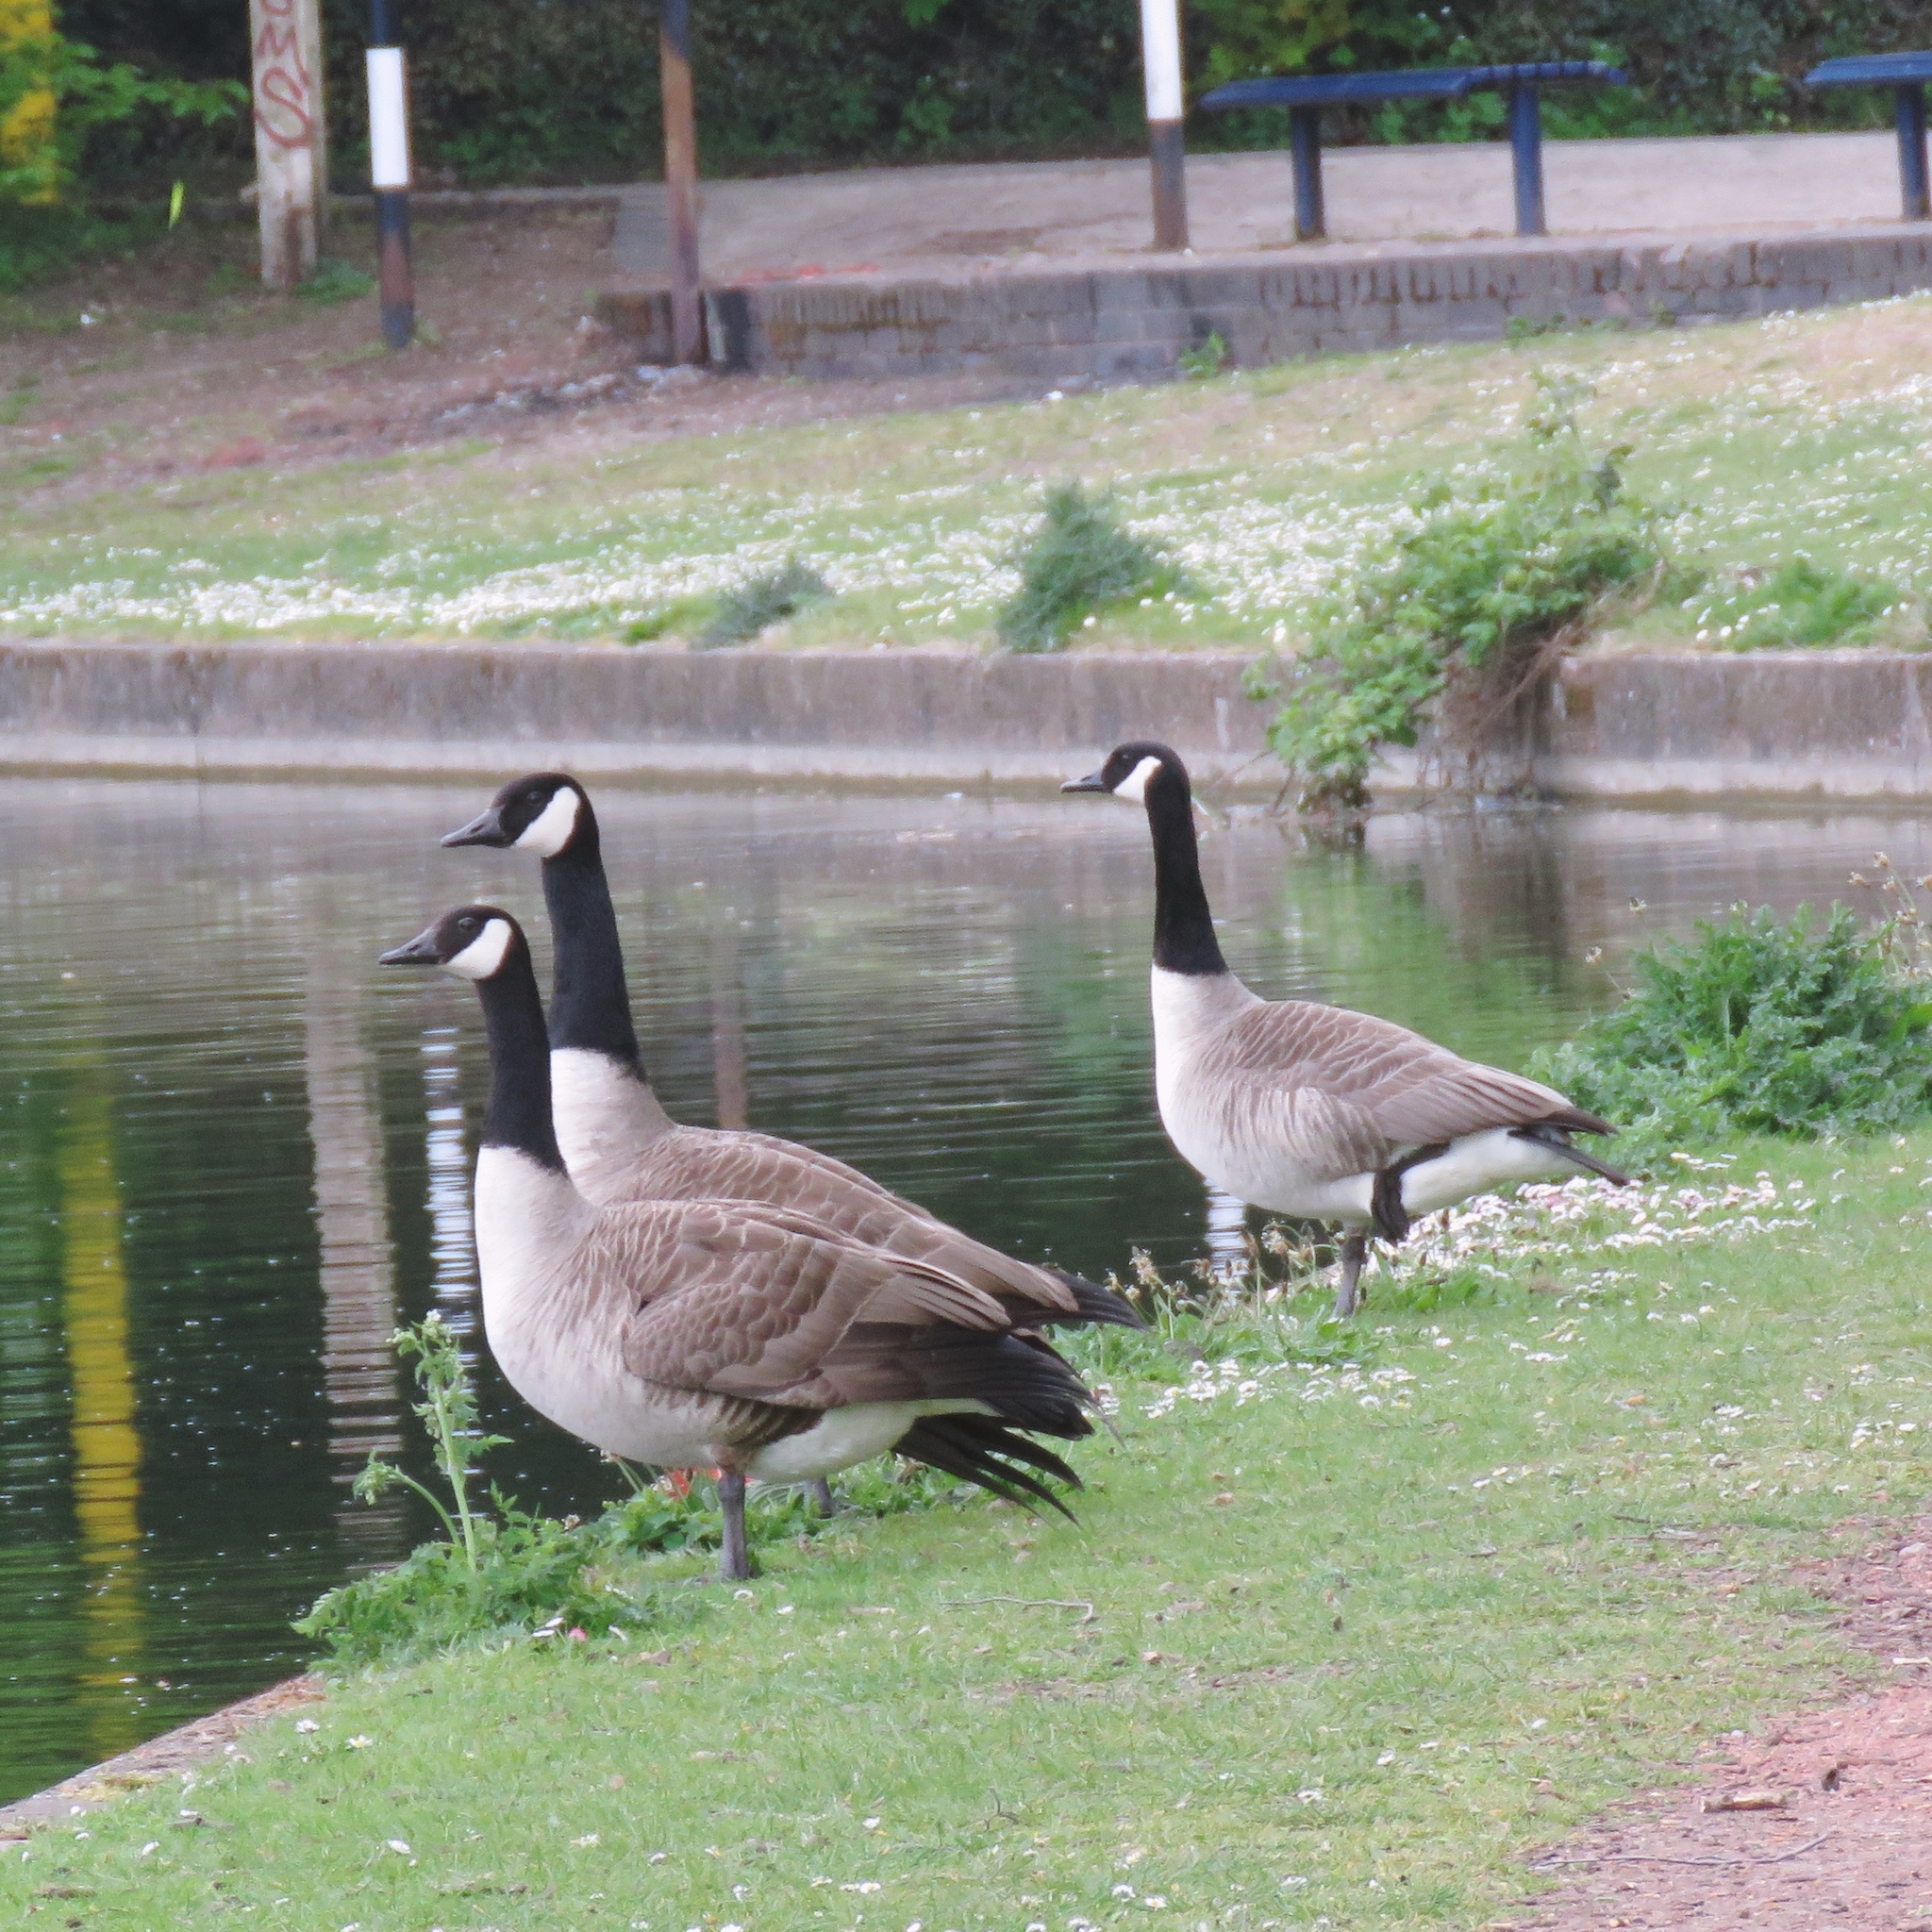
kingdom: Animalia
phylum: Chordata
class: Aves
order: Anseriformes
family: Anatidae
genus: Branta
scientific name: Branta canadensis
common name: Canada goose
